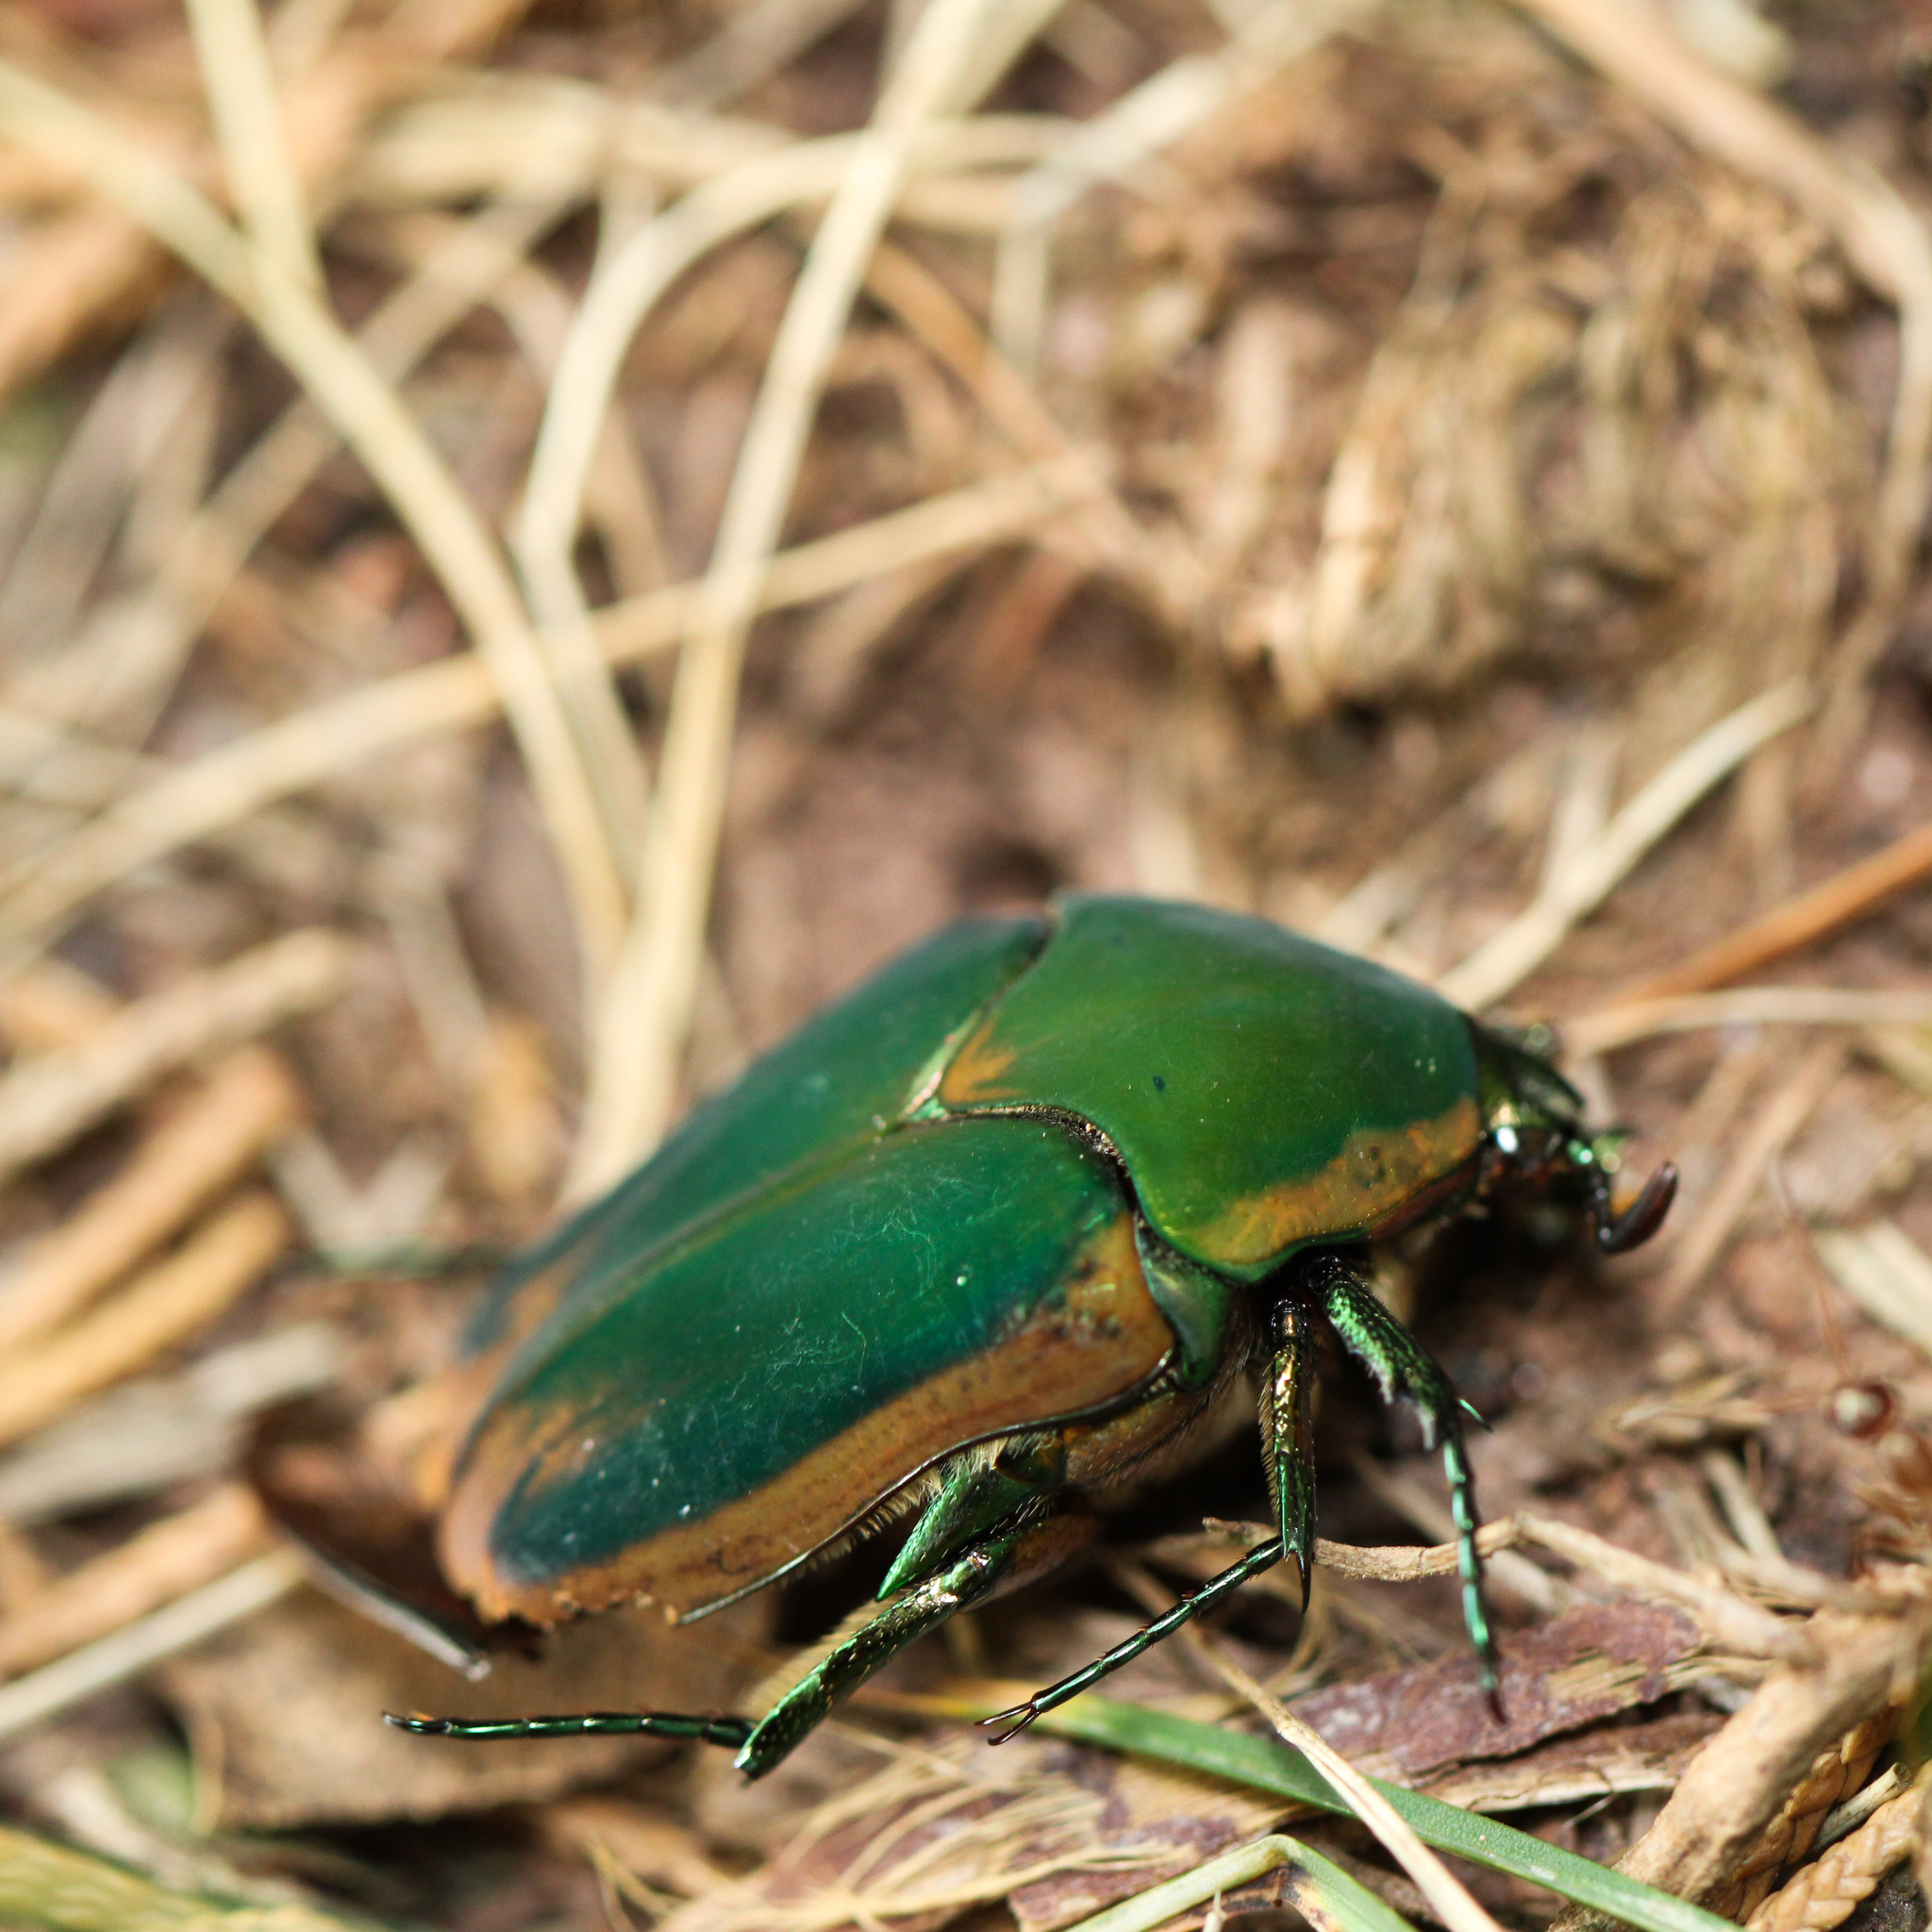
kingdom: Animalia
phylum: Arthropoda
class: Insecta
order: Coleoptera
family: Scarabaeidae
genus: Cotinis
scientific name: Cotinis nitida
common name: Common green june beetle
